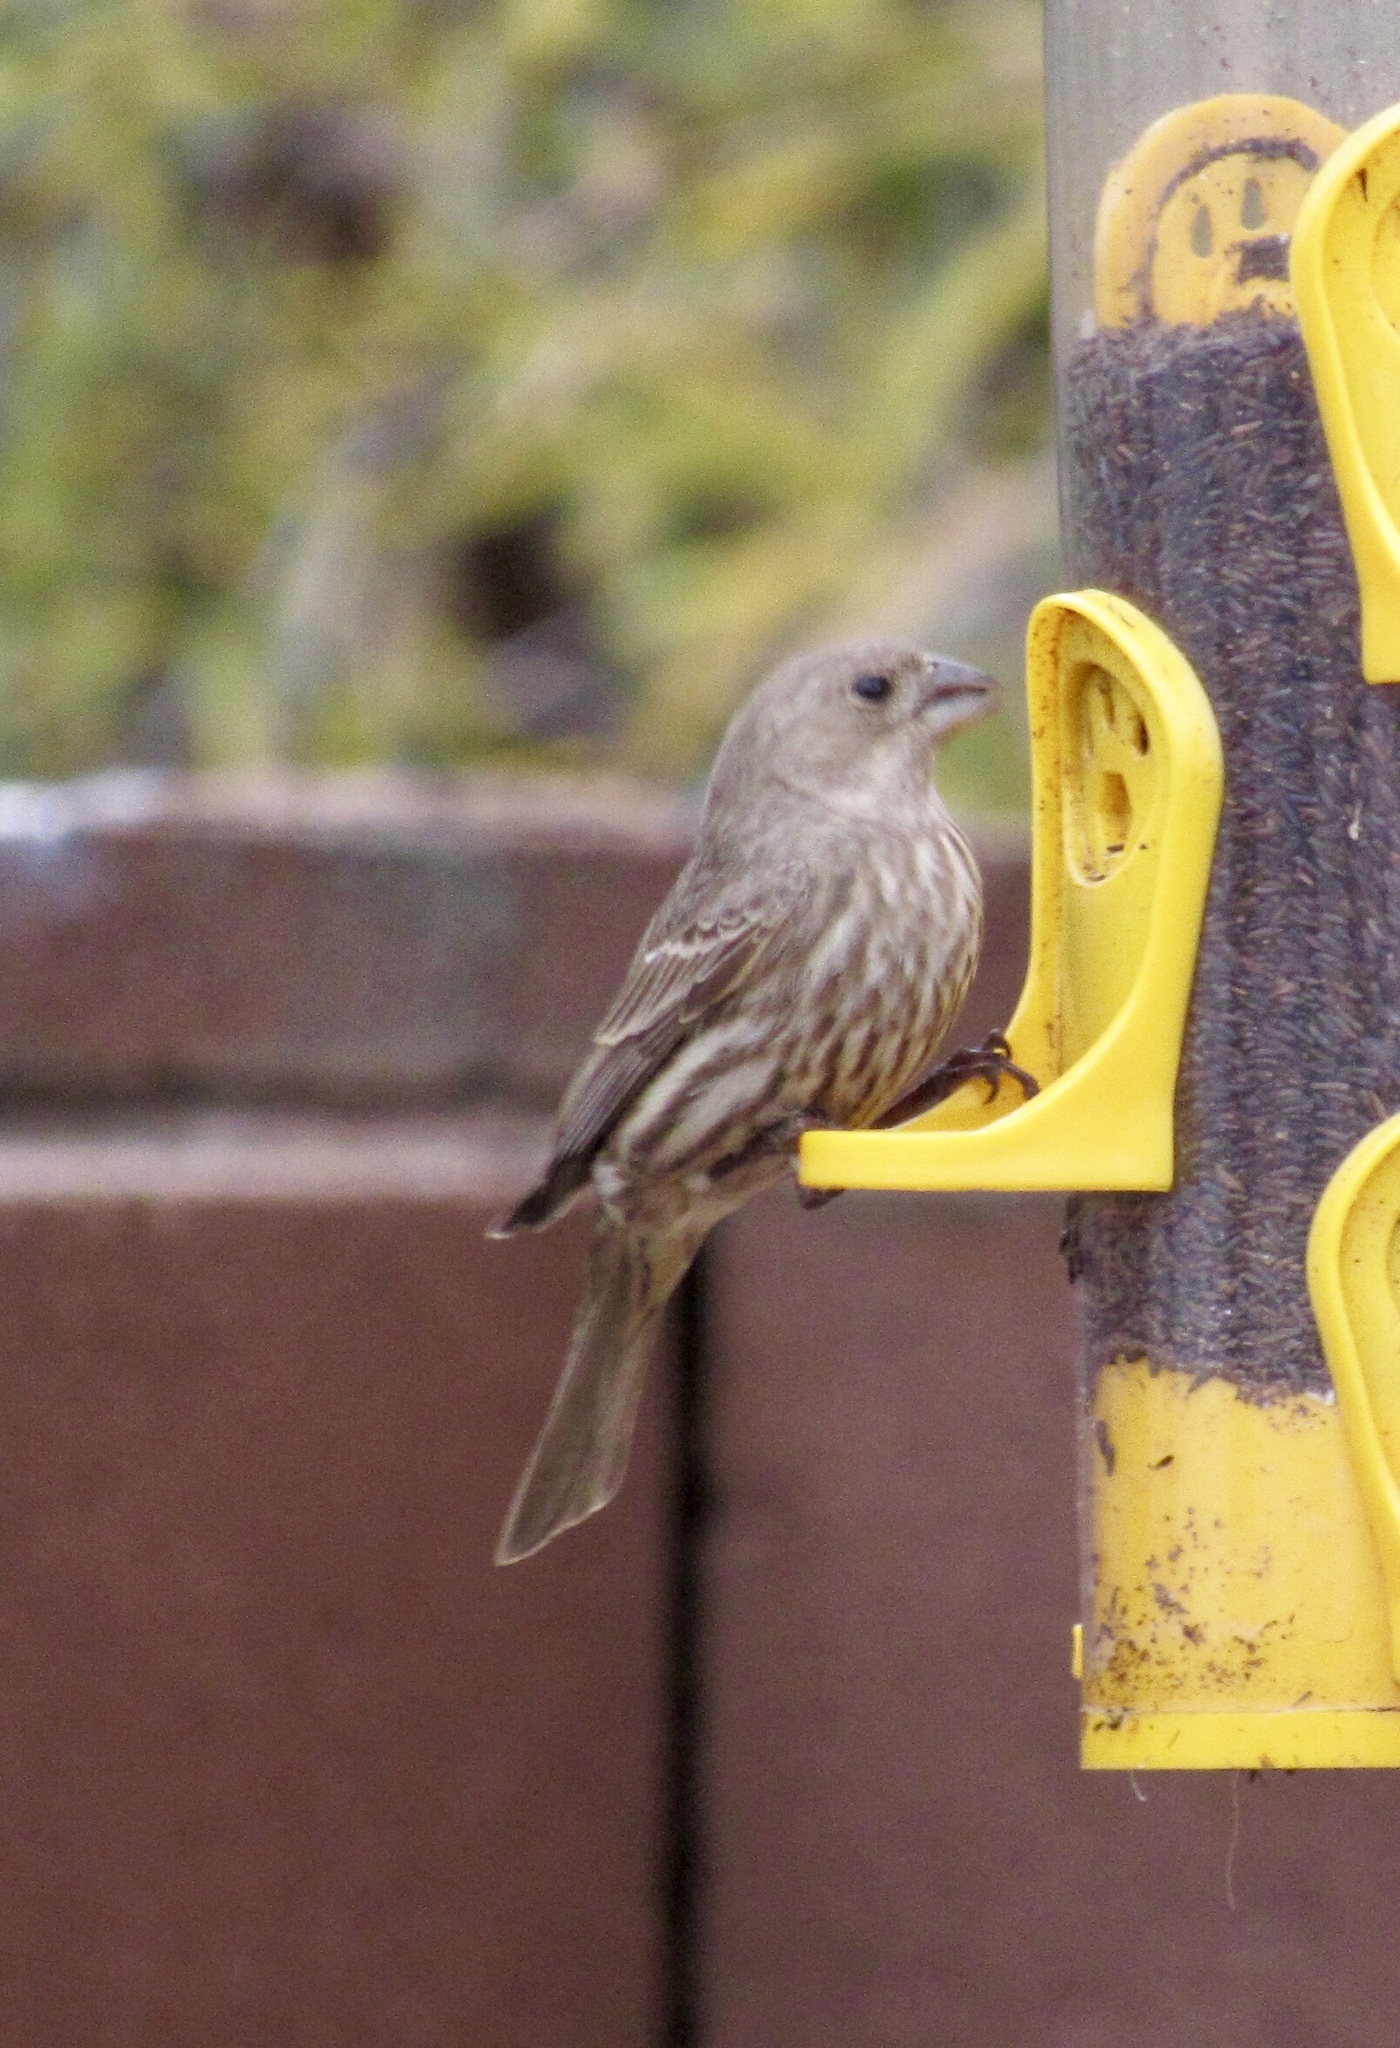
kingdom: Animalia
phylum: Chordata
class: Aves
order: Passeriformes
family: Fringillidae
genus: Haemorhous
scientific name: Haemorhous mexicanus
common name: House finch
